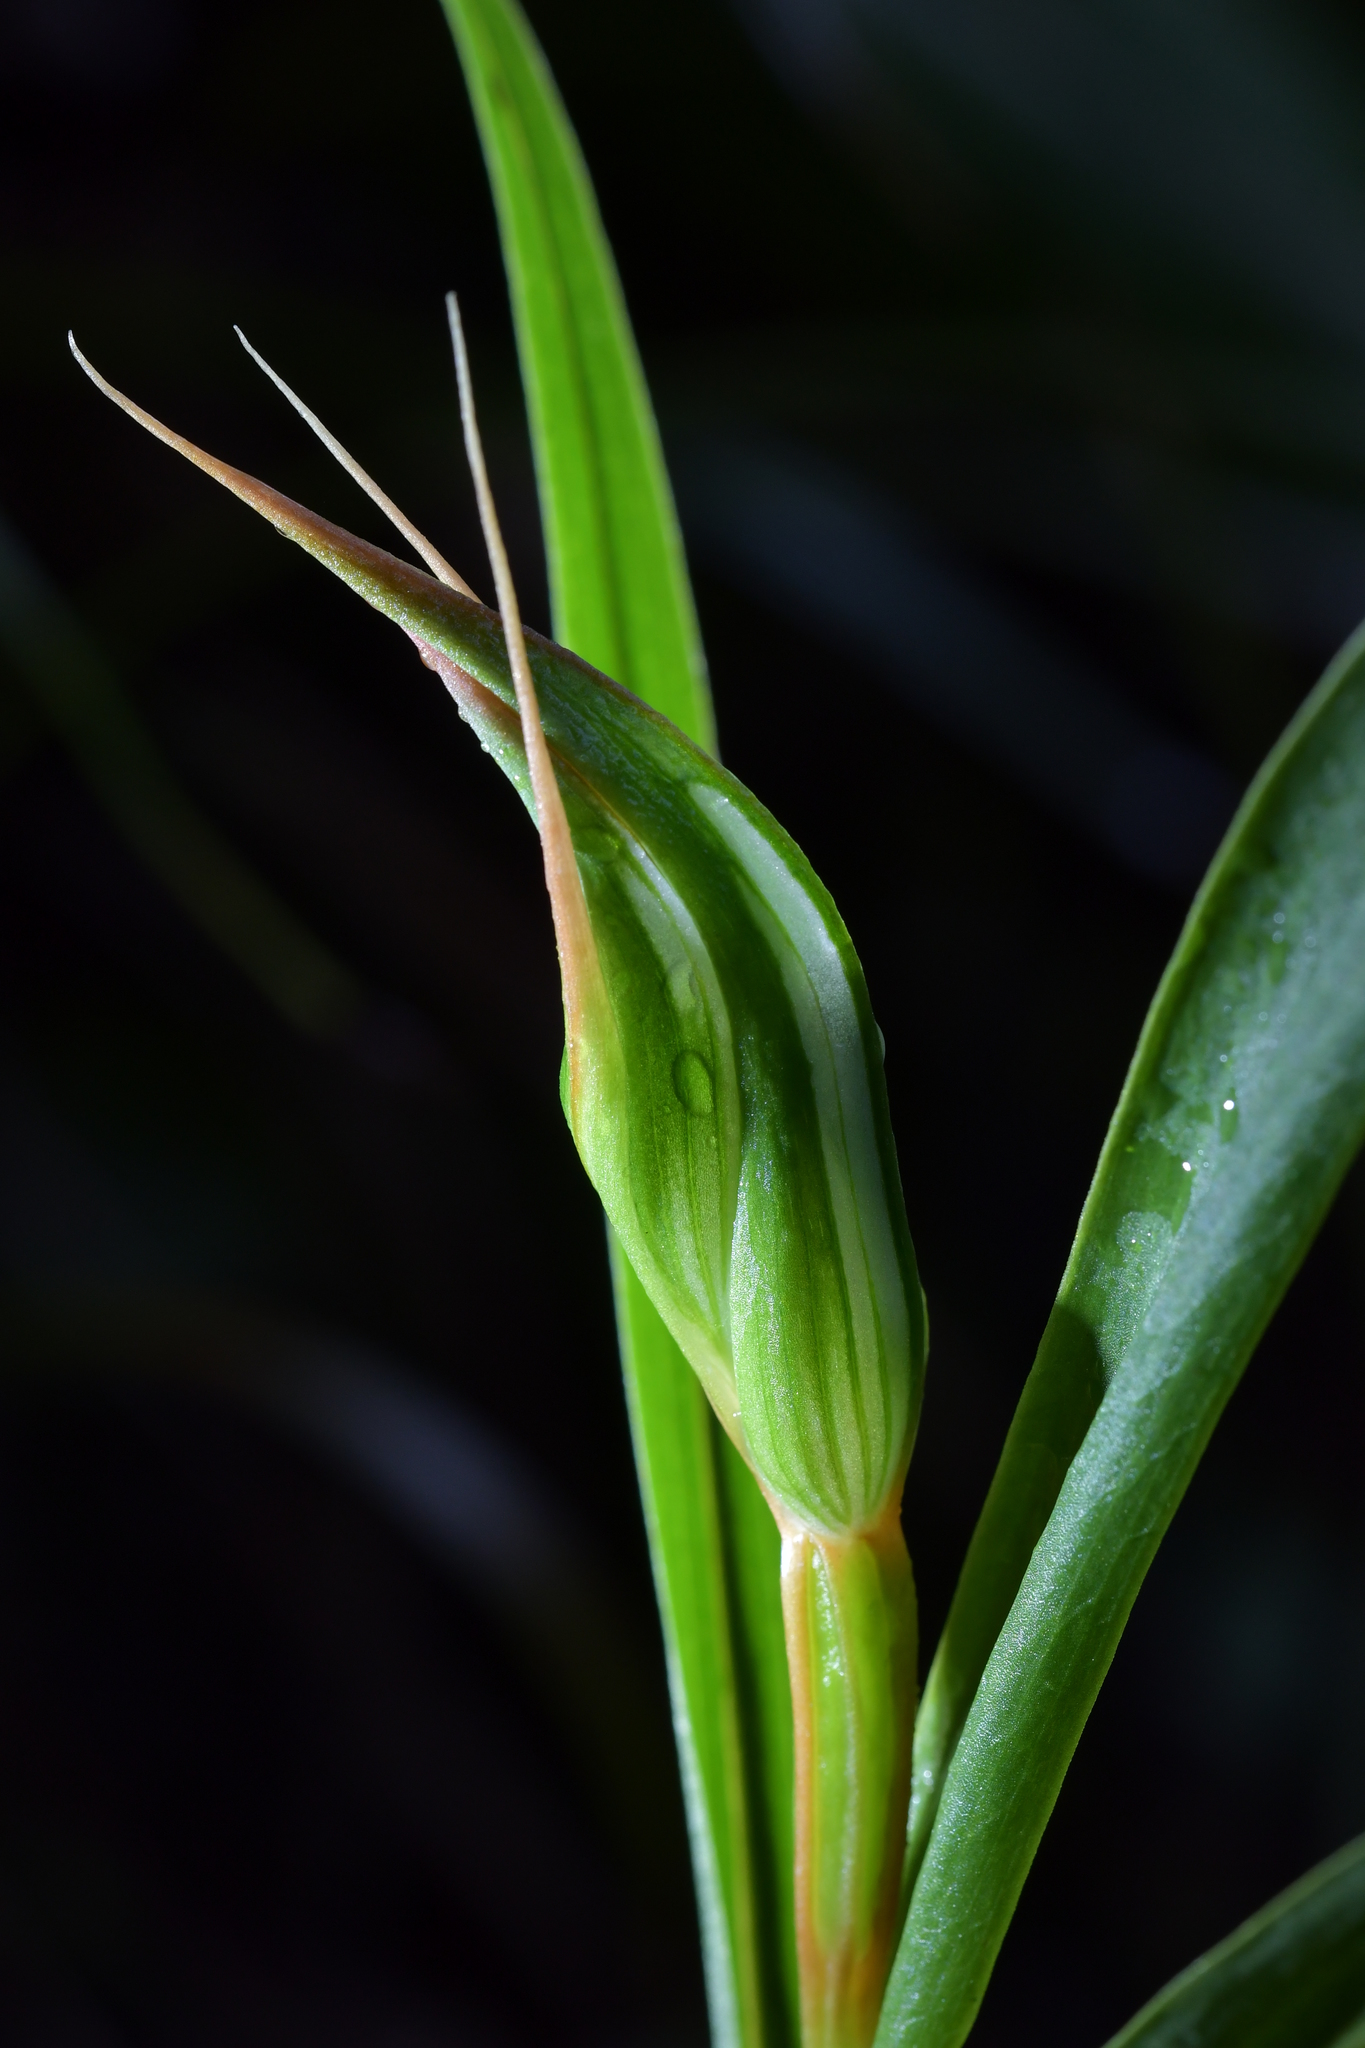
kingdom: Plantae
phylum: Tracheophyta
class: Liliopsida
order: Asparagales
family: Orchidaceae
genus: Pterostylis
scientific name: Pterostylis cardiostigma
